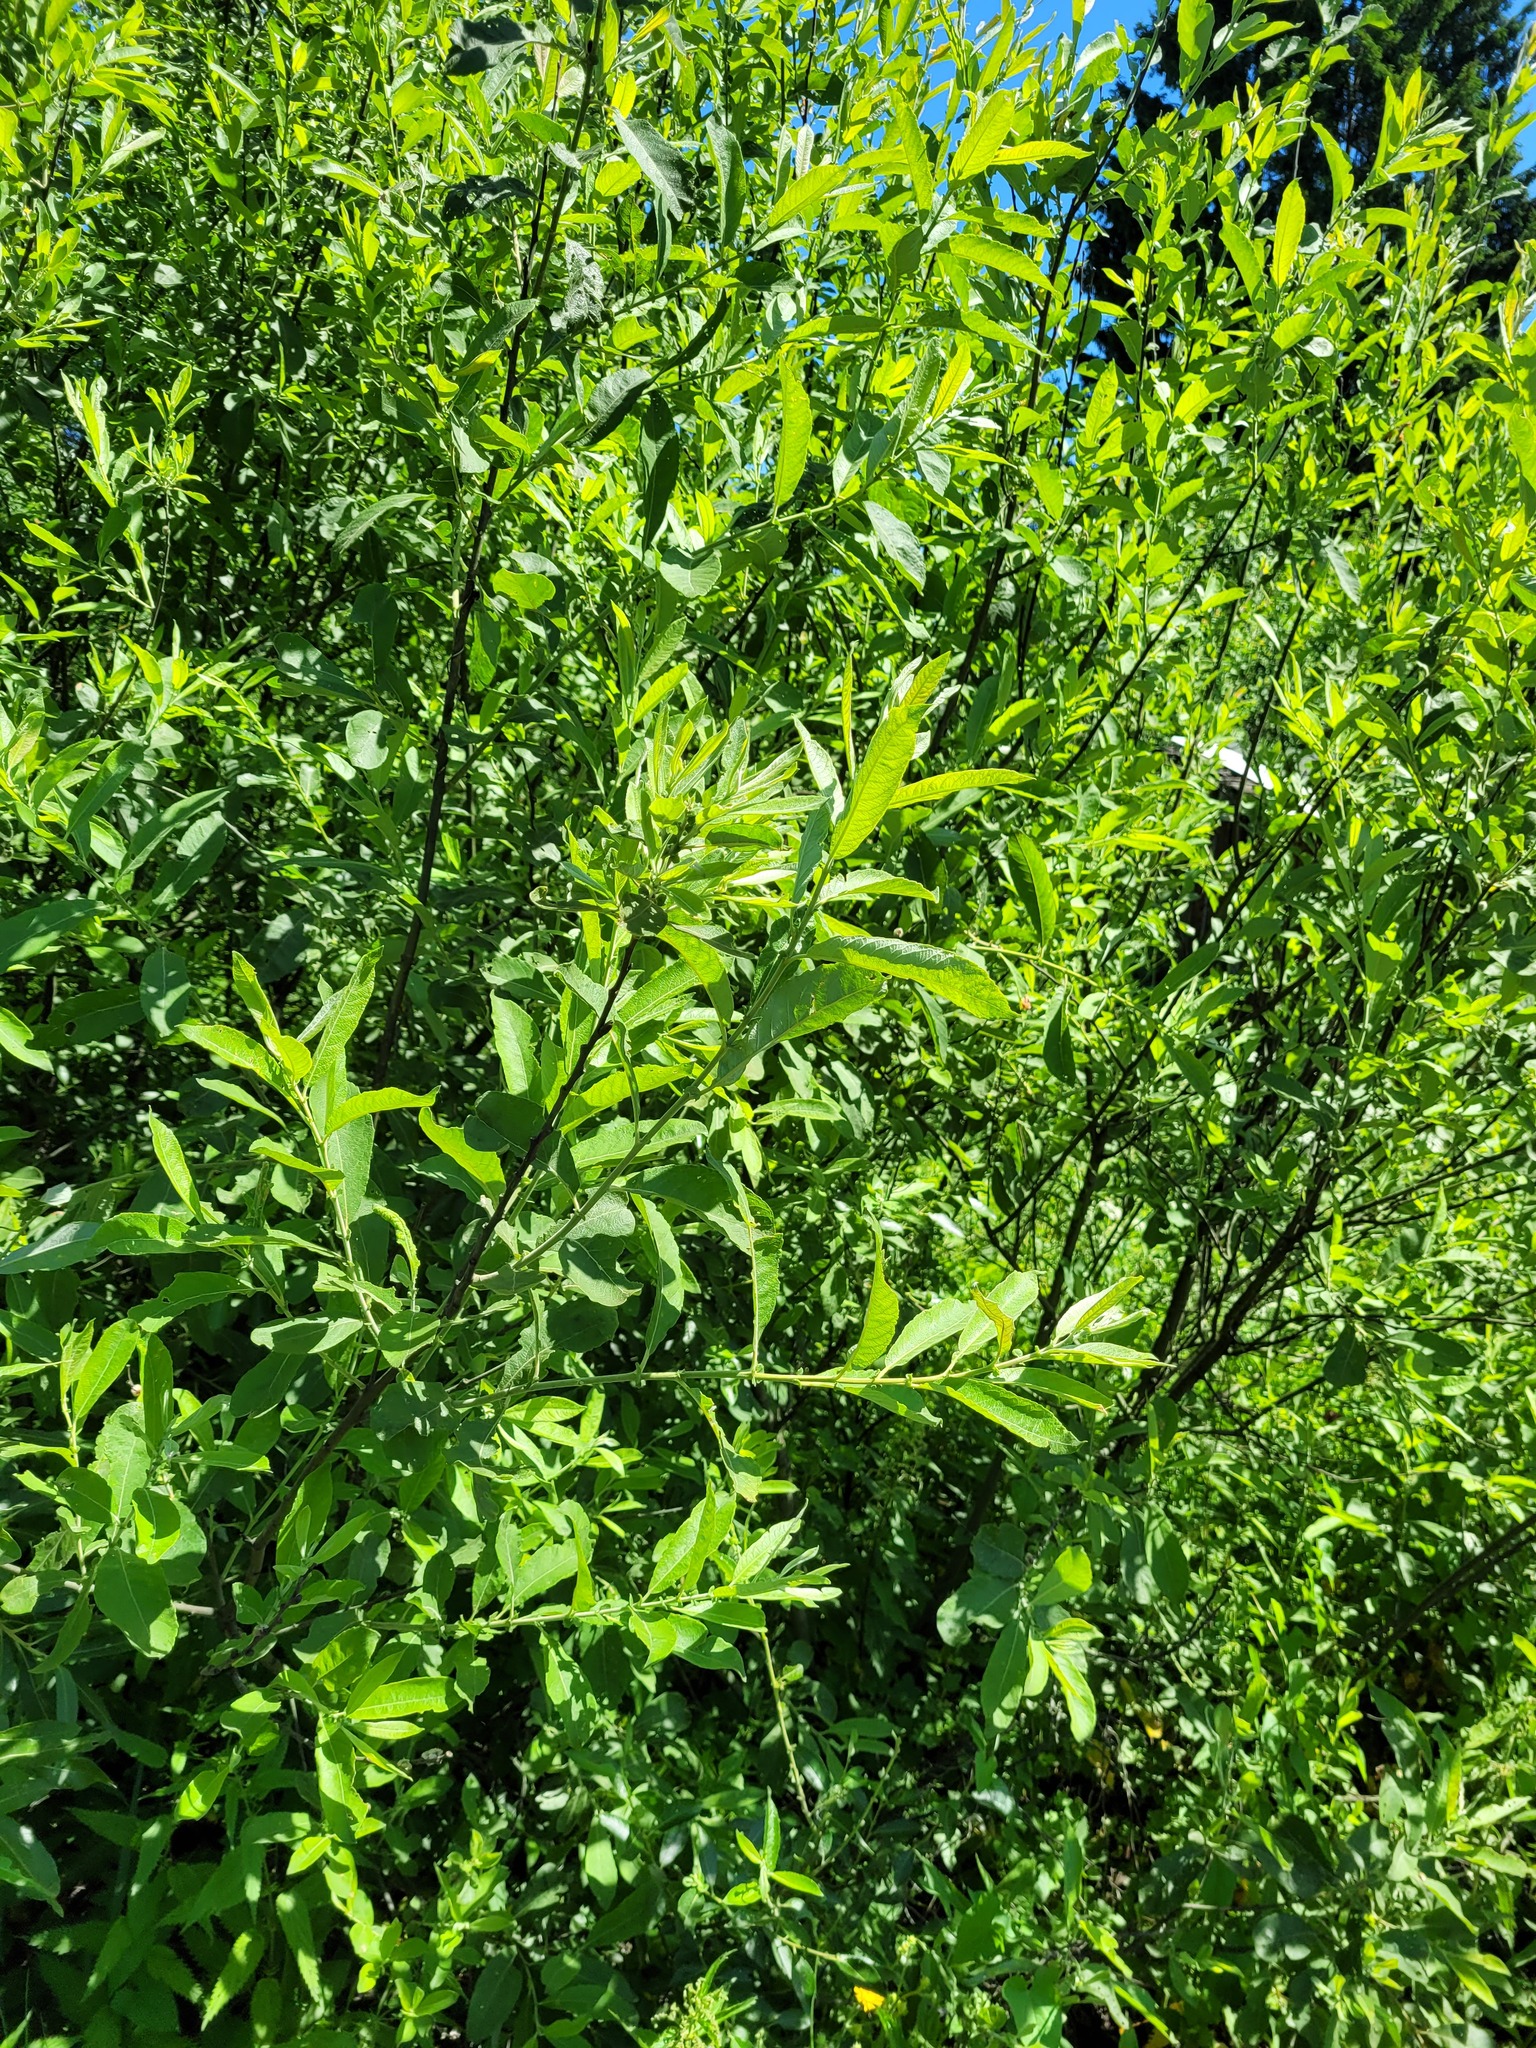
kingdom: Plantae
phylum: Tracheophyta
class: Magnoliopsida
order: Malpighiales
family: Salicaceae
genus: Salix
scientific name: Salix cinerea
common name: Common sallow
